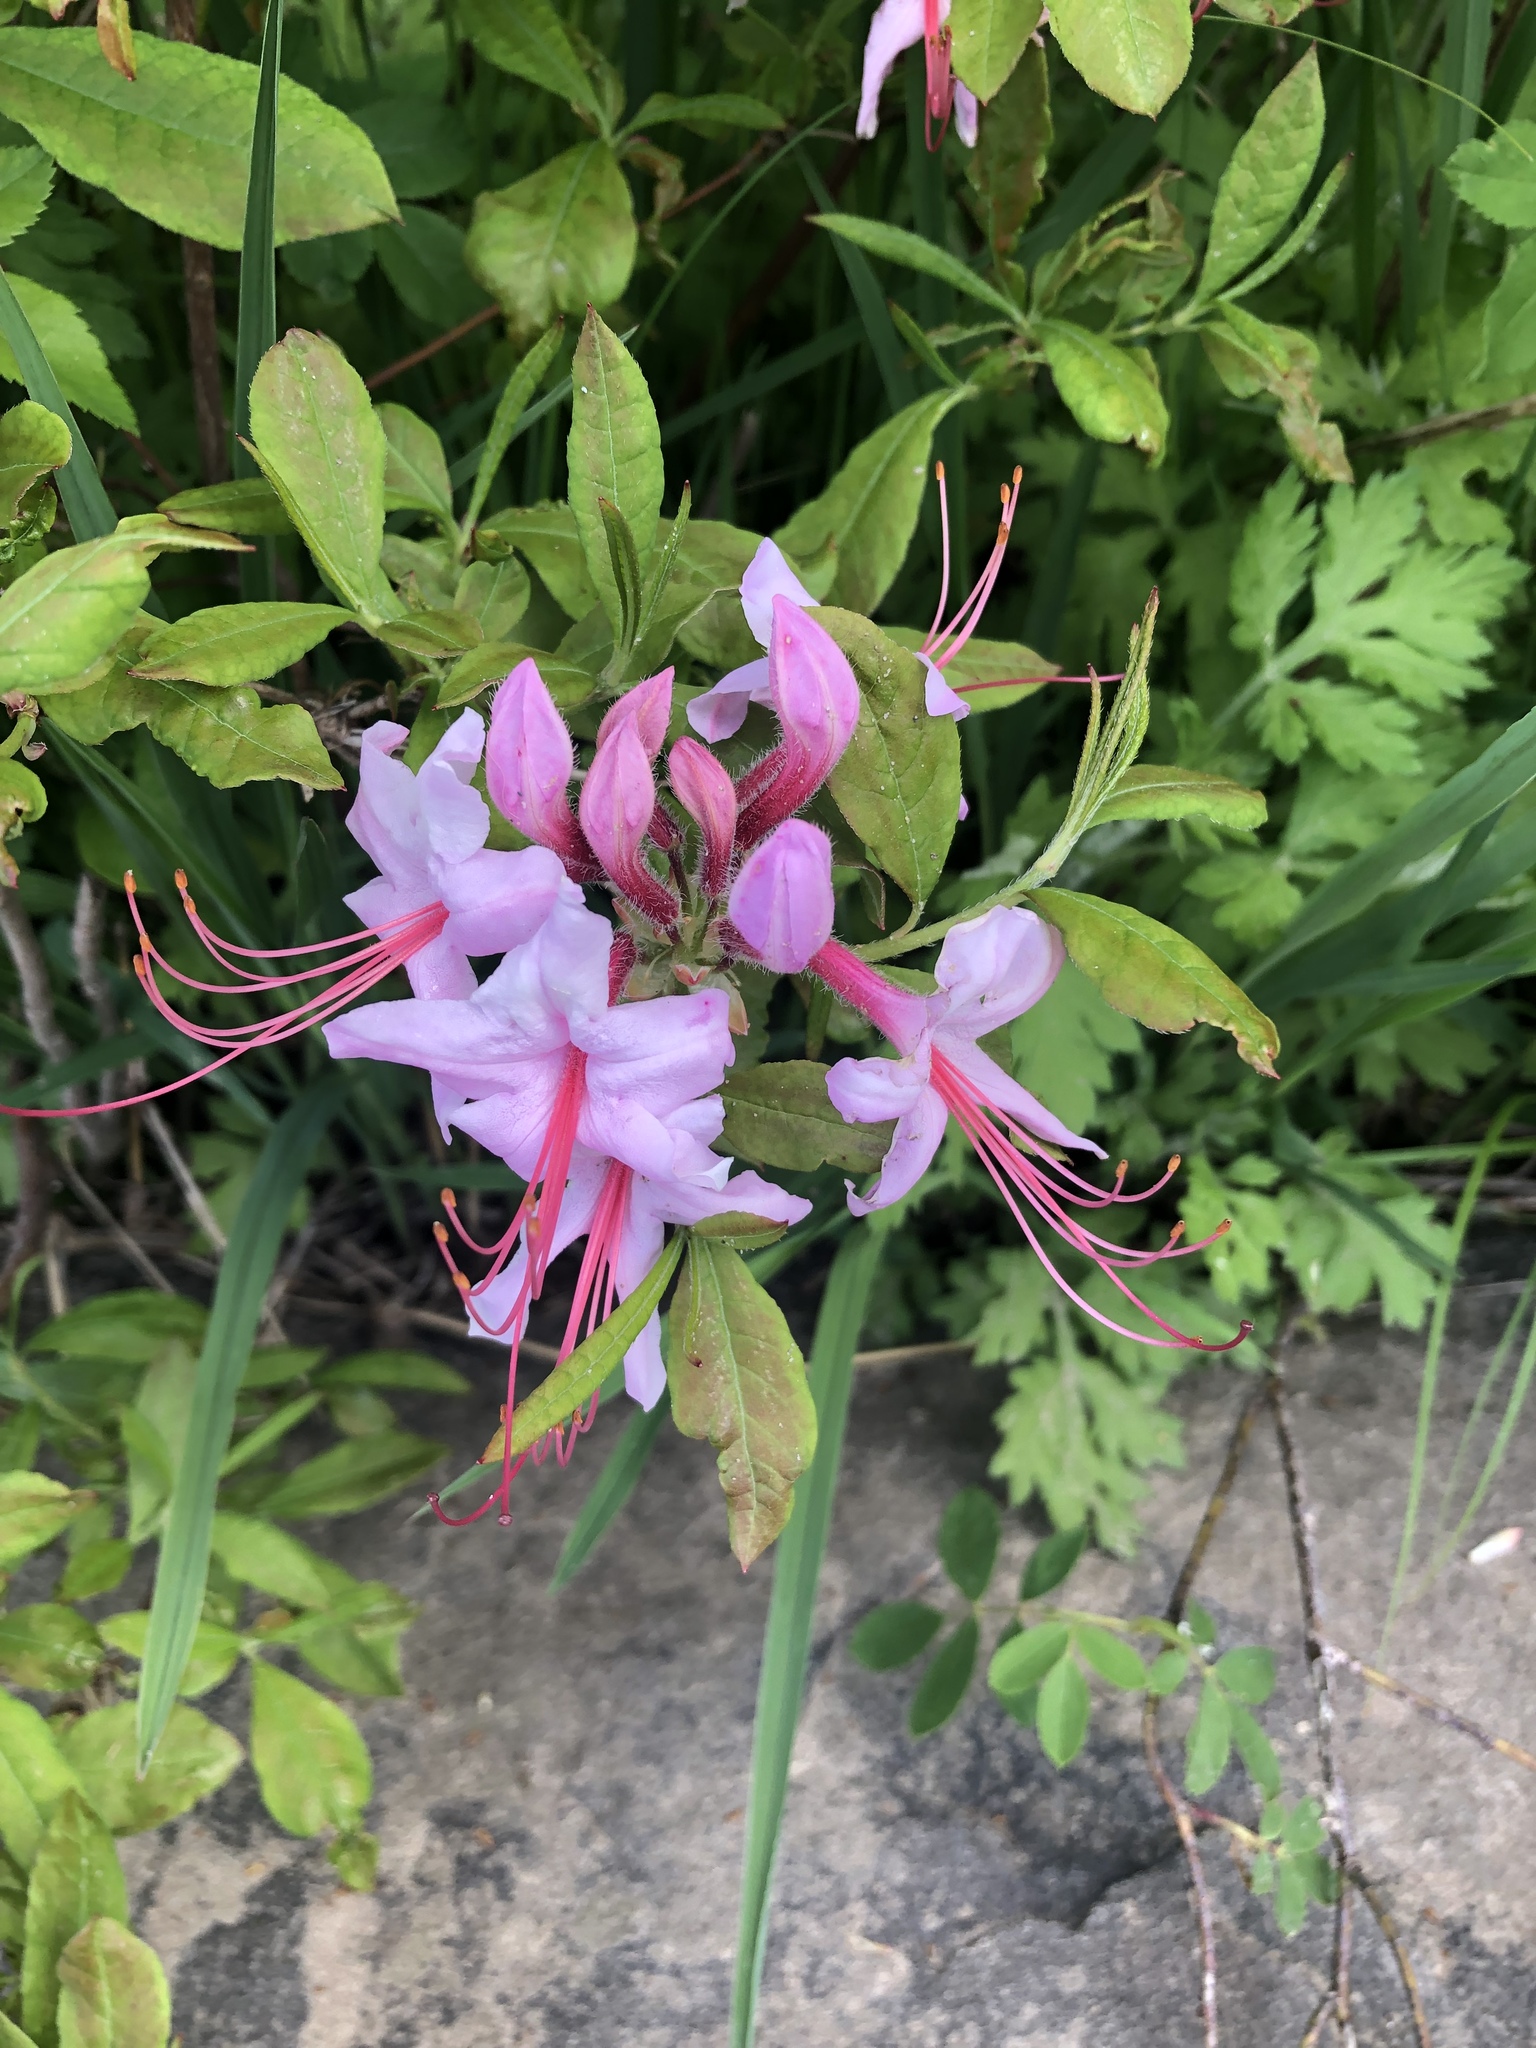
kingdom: Plantae
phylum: Tracheophyta
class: Magnoliopsida
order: Ericales
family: Ericaceae
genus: Rhododendron
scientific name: Rhododendron periclymenoides
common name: Election-pink
